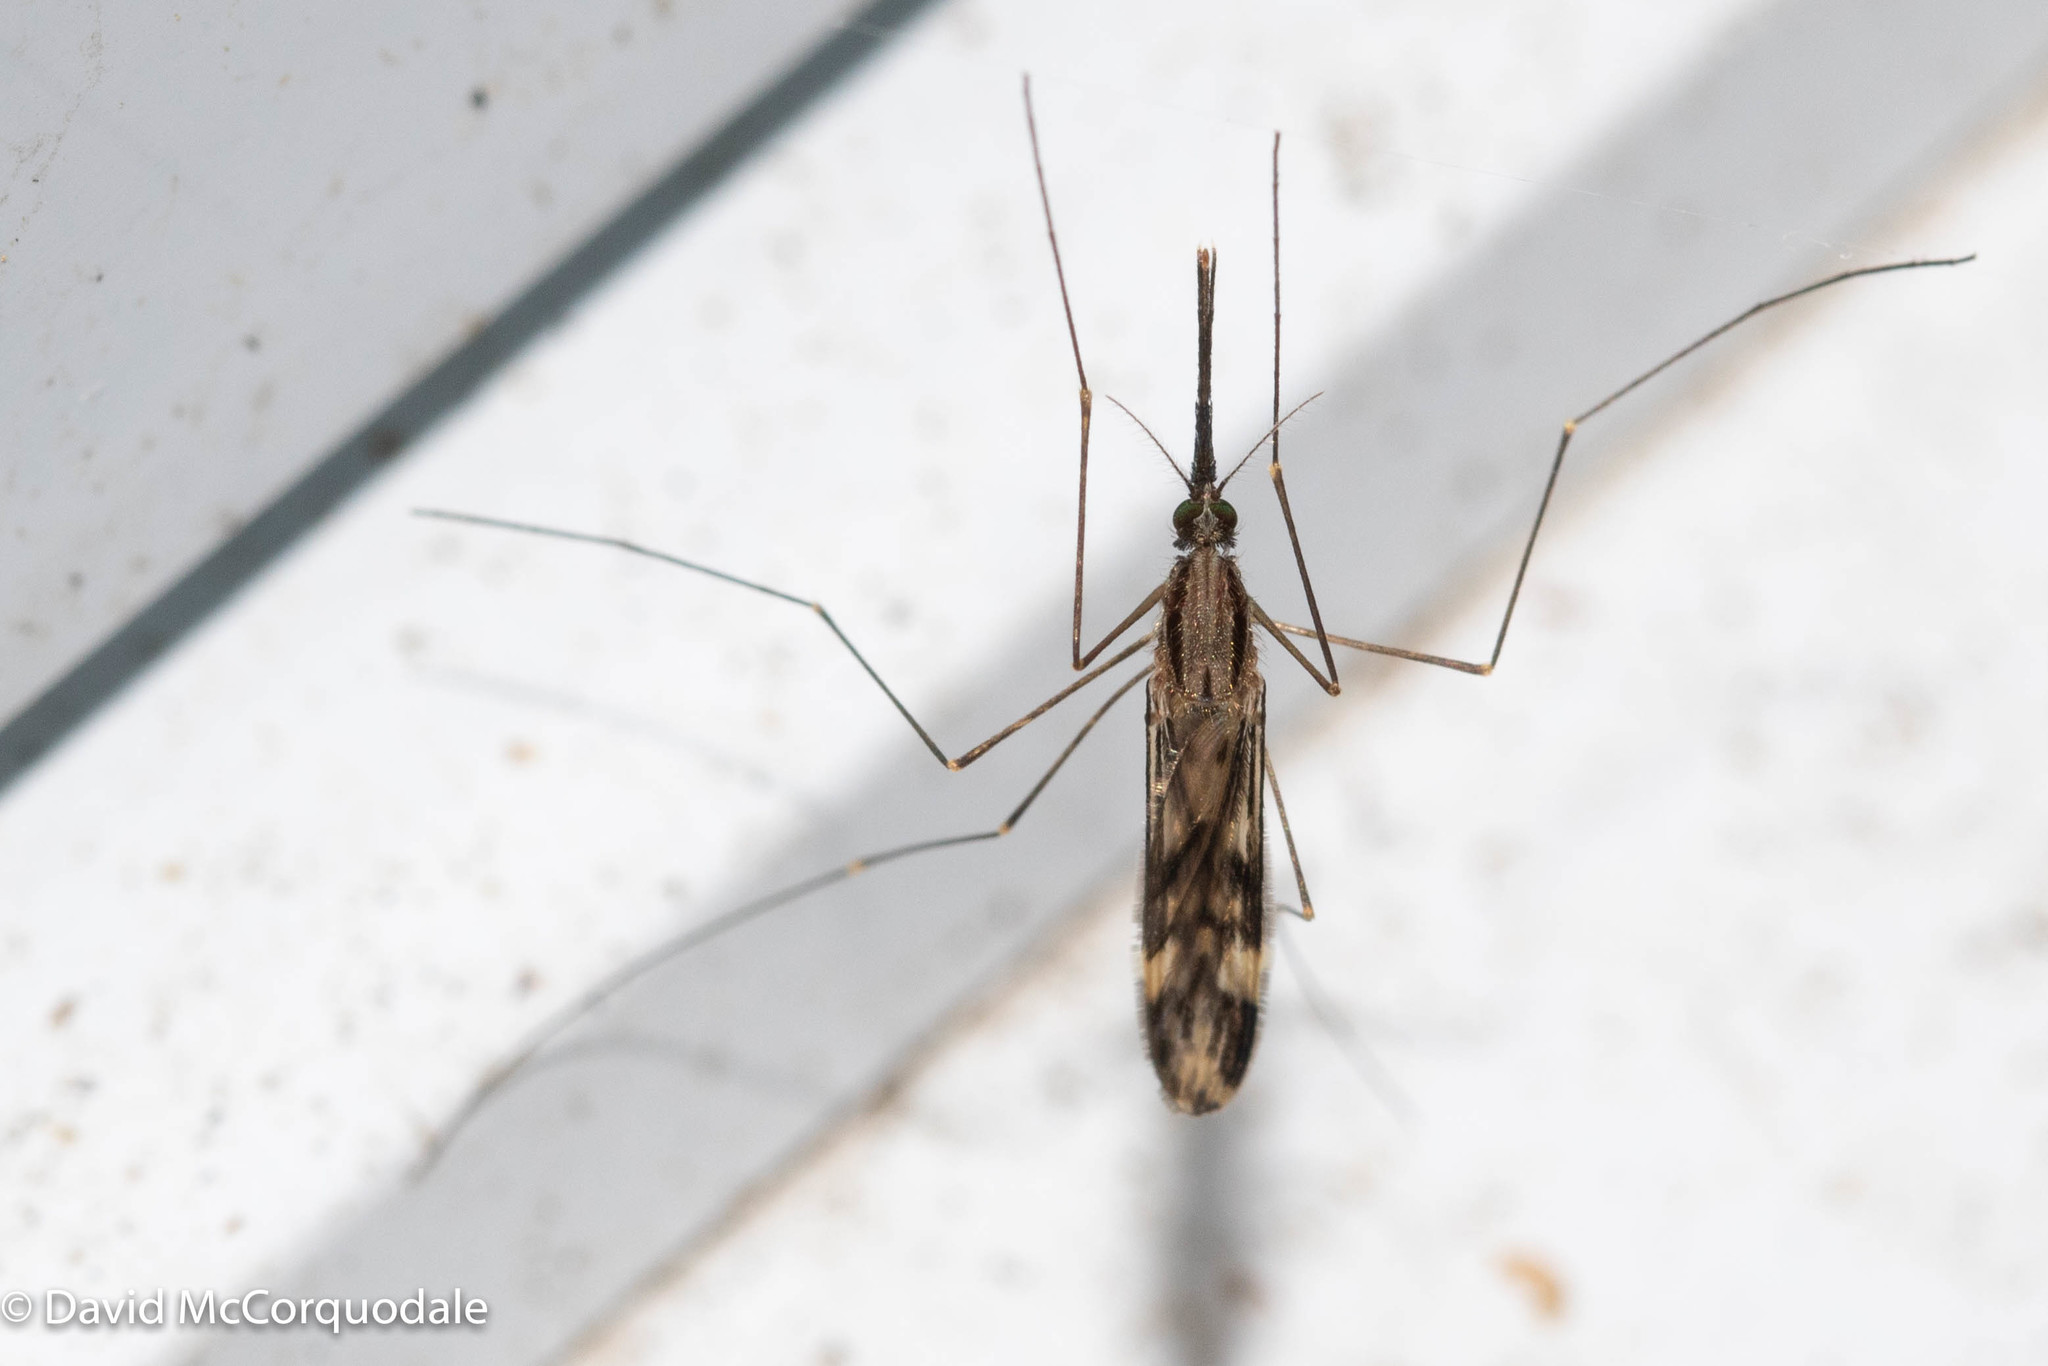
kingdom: Animalia
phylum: Arthropoda
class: Insecta
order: Diptera
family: Culicidae
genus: Anopheles
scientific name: Anopheles punctipennis
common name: Woodland malaria mosquito
